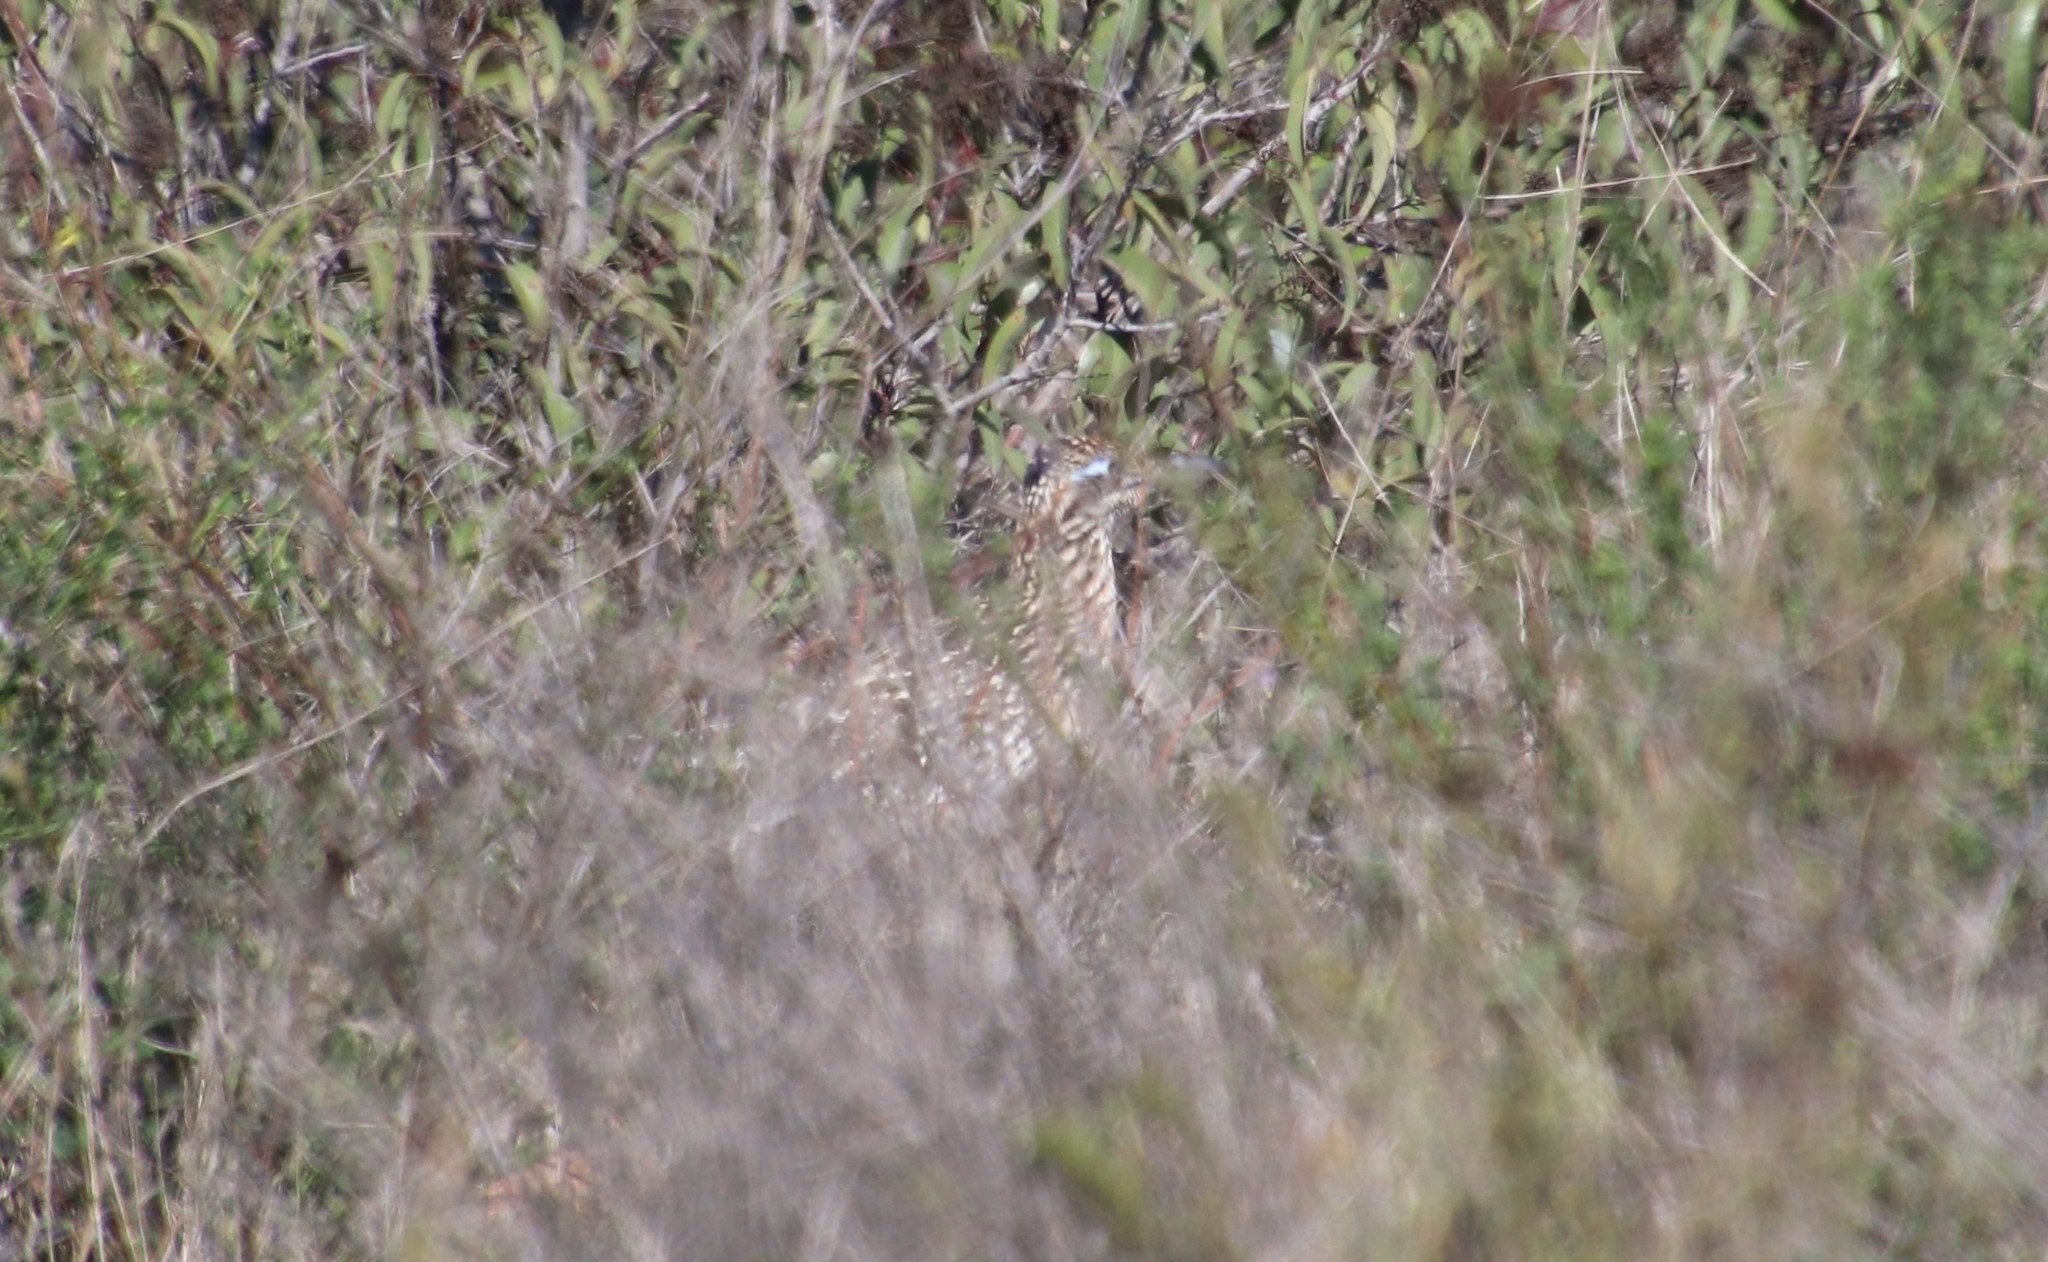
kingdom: Animalia
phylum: Chordata
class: Aves
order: Cuculiformes
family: Cuculidae
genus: Geococcyx
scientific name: Geococcyx californianus
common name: Greater roadrunner
